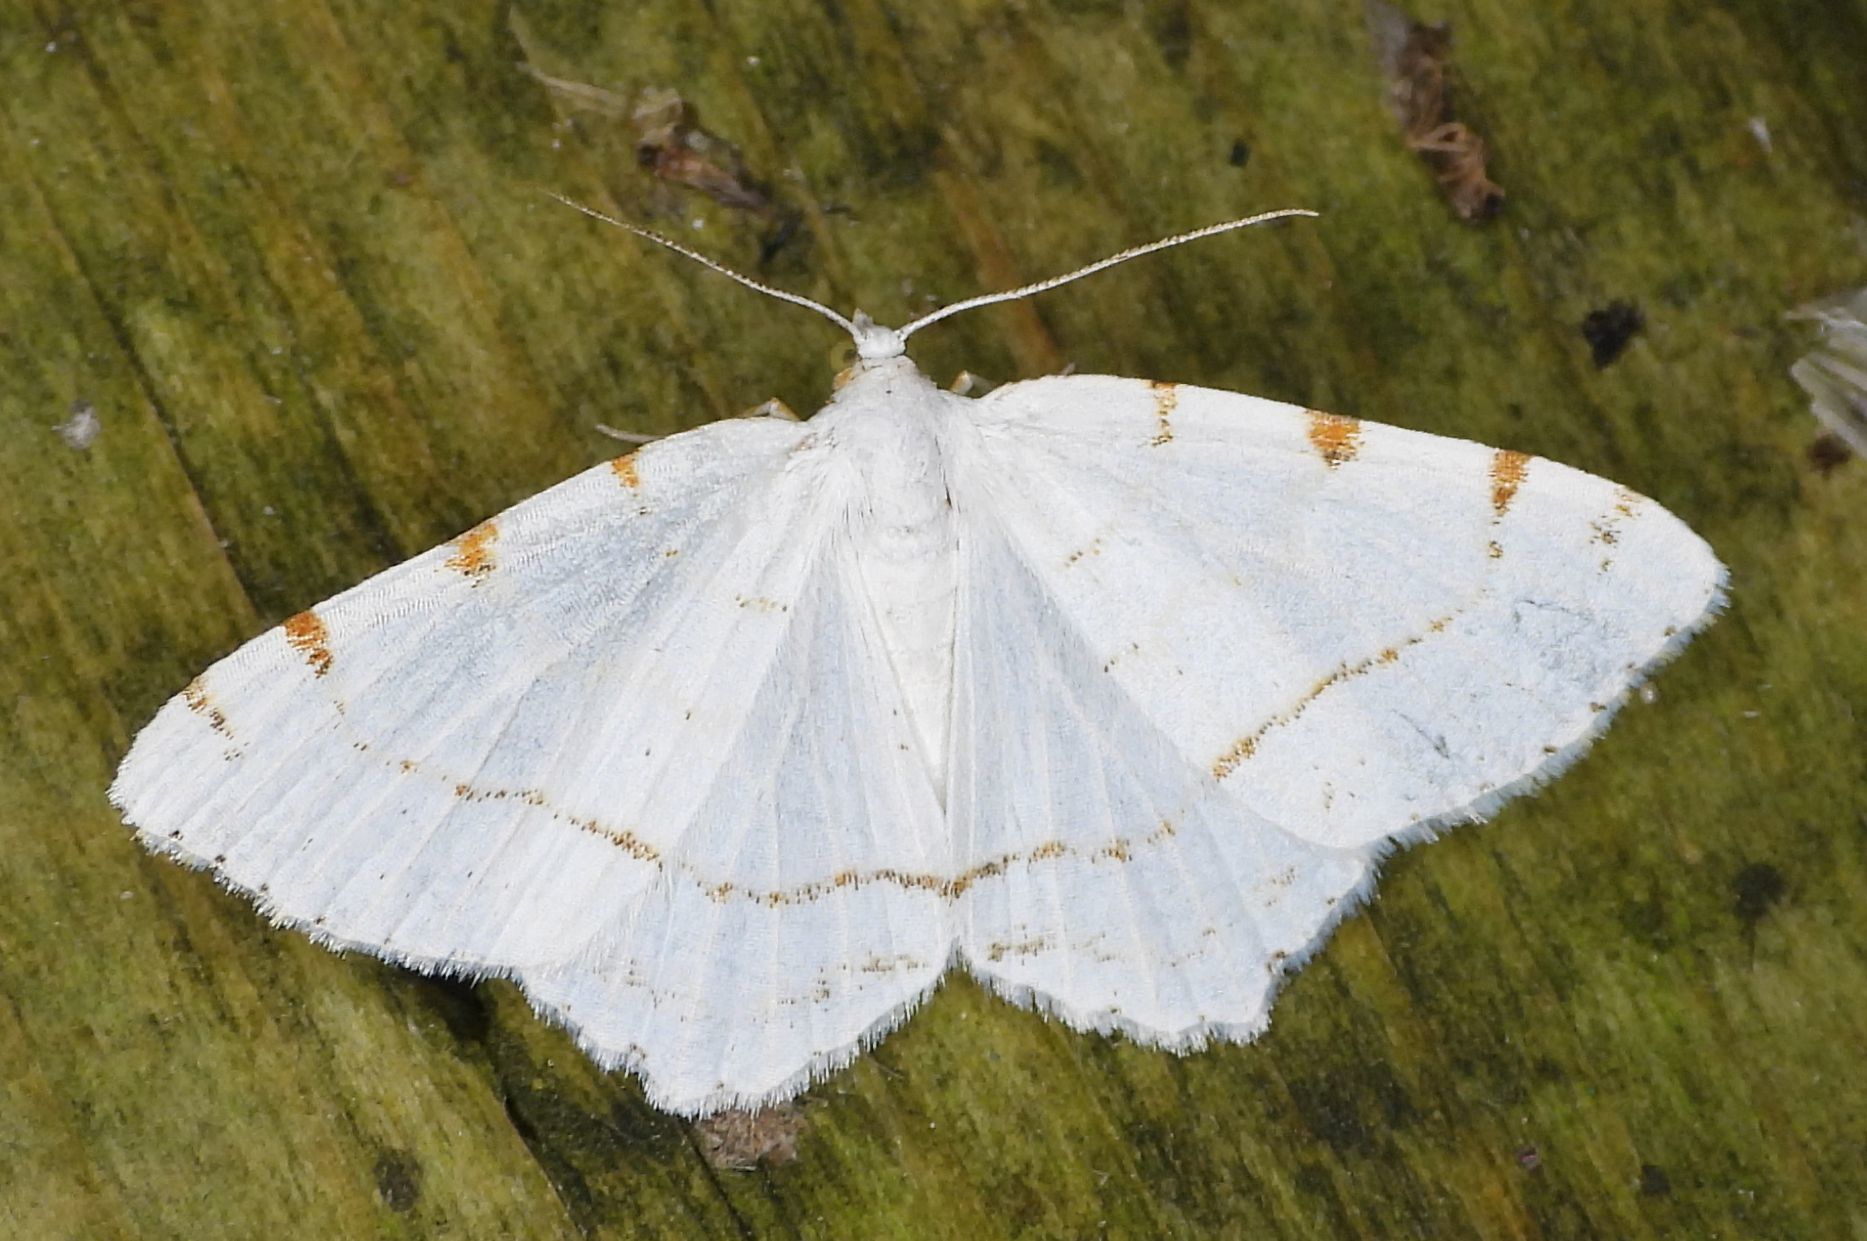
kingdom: Animalia
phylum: Arthropoda
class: Insecta
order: Lepidoptera
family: Geometridae
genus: Macaria
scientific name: Macaria pustularia
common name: Lesser maple spanworm moth
